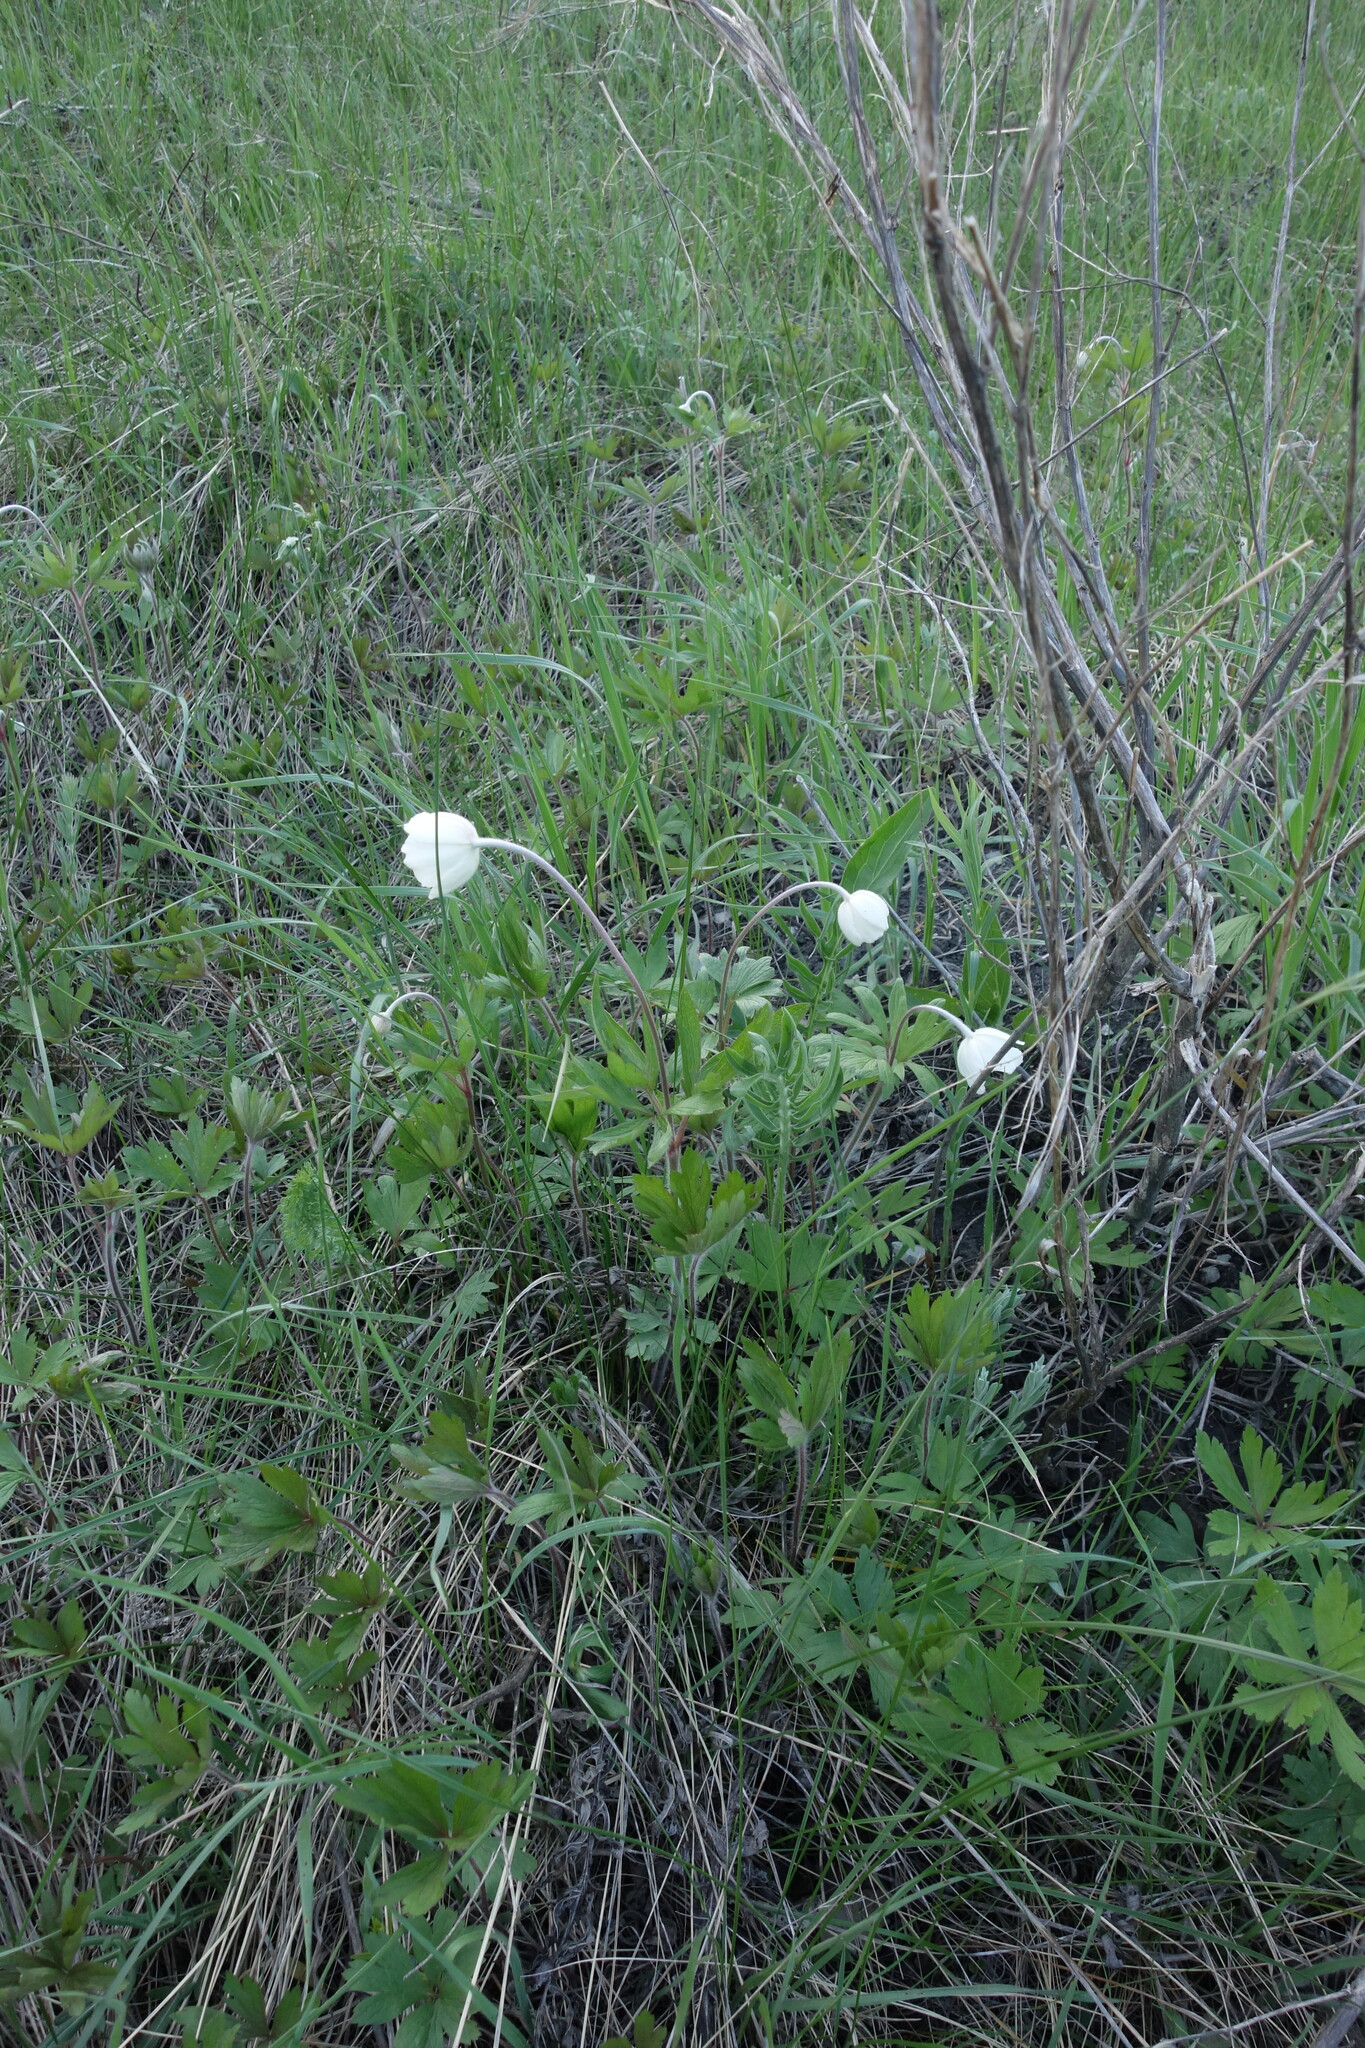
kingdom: Plantae
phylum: Tracheophyta
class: Magnoliopsida
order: Ranunculales
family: Ranunculaceae
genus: Anemone
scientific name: Anemone sylvestris
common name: Snowdrop anemone
